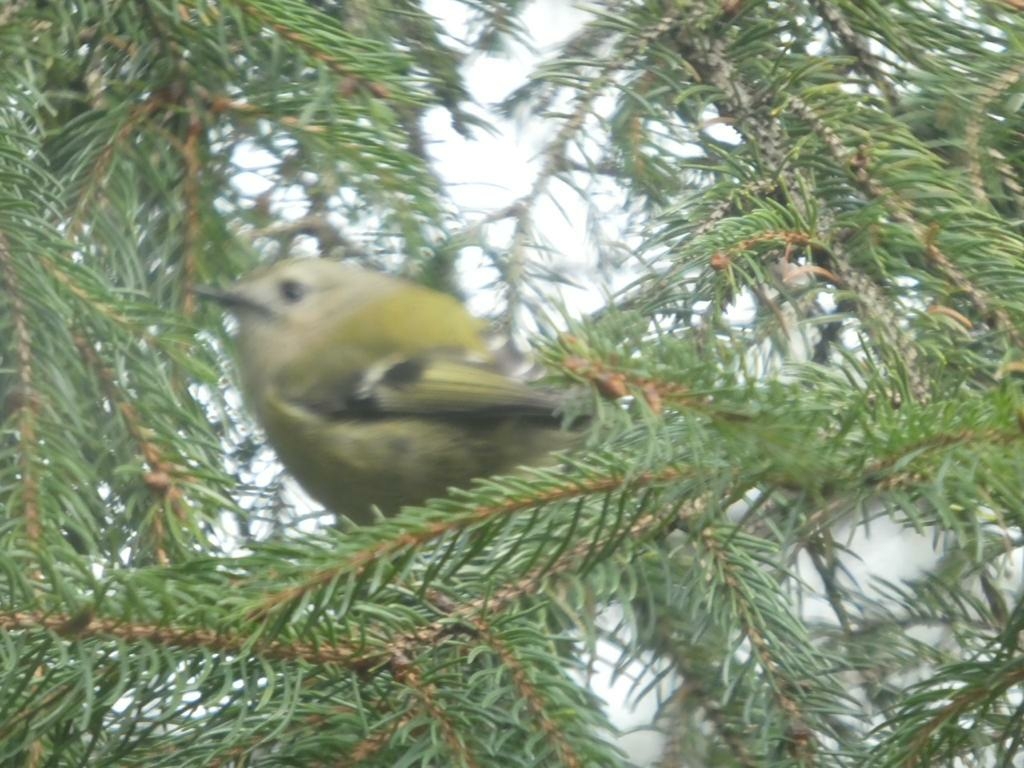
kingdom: Animalia
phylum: Chordata
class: Aves
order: Passeriformes
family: Regulidae
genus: Regulus
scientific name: Regulus regulus
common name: Goldcrest
